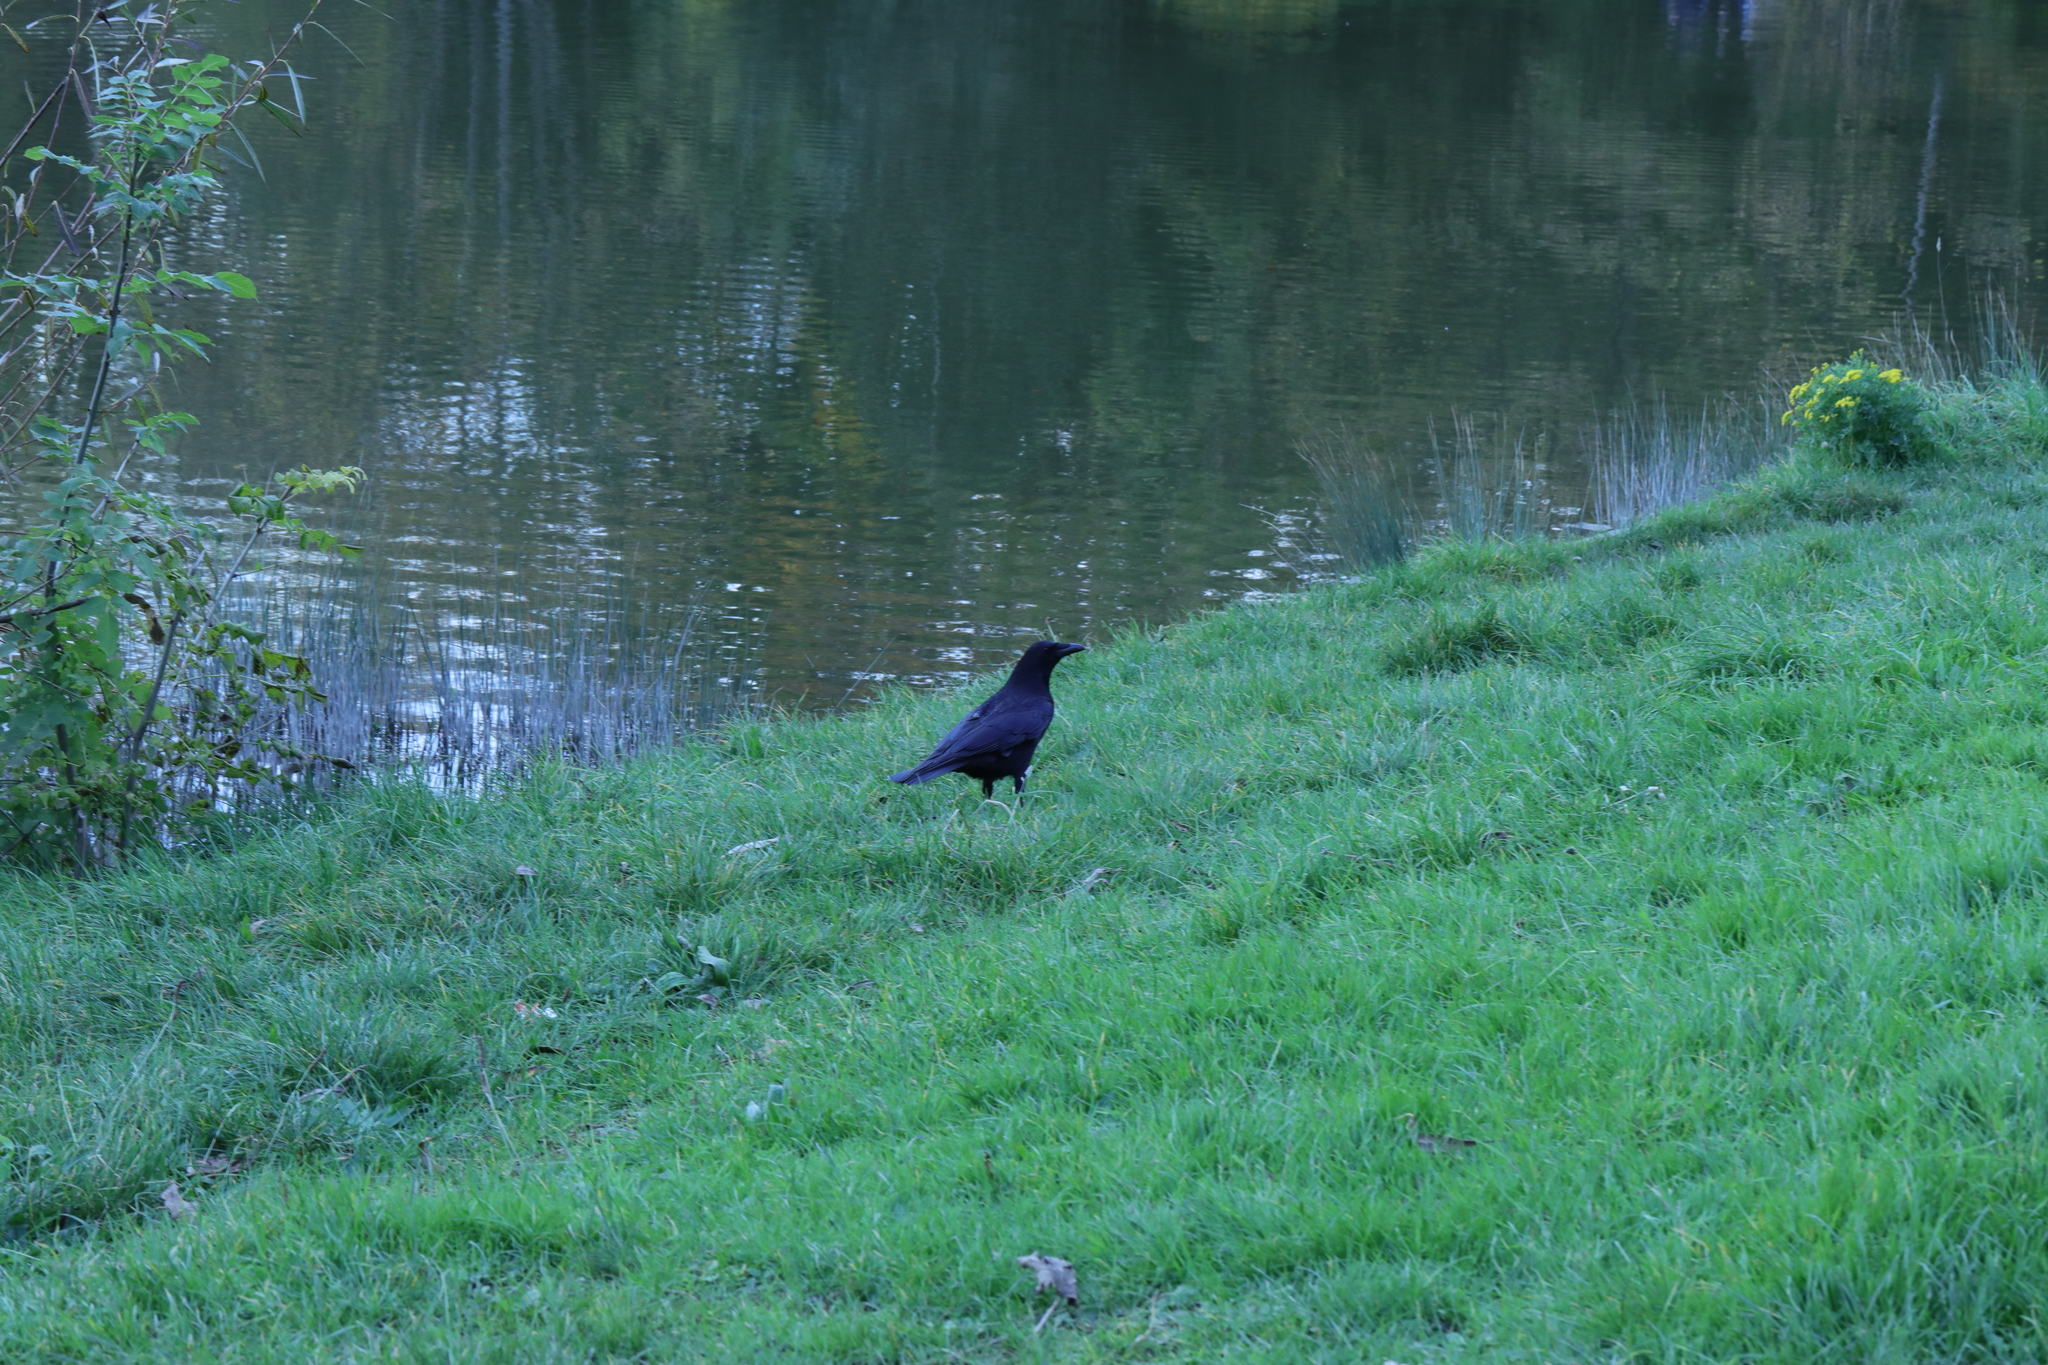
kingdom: Animalia
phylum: Chordata
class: Aves
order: Passeriformes
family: Corvidae
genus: Corvus
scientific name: Corvus corone
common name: Carrion crow
